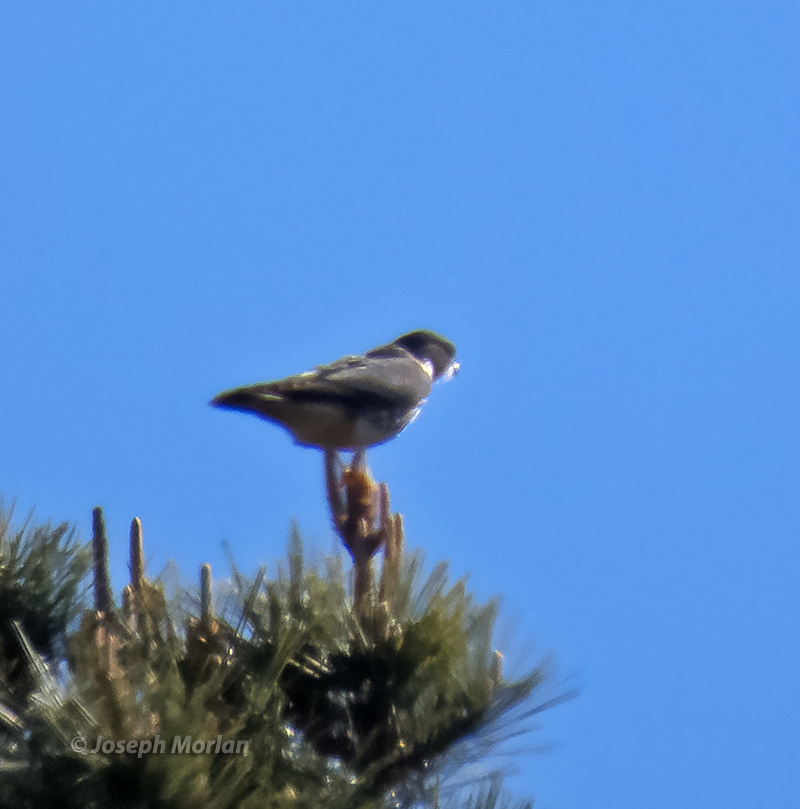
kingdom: Animalia
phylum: Chordata
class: Aves
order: Falconiformes
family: Falconidae
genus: Falco
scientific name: Falco columbarius
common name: Merlin
